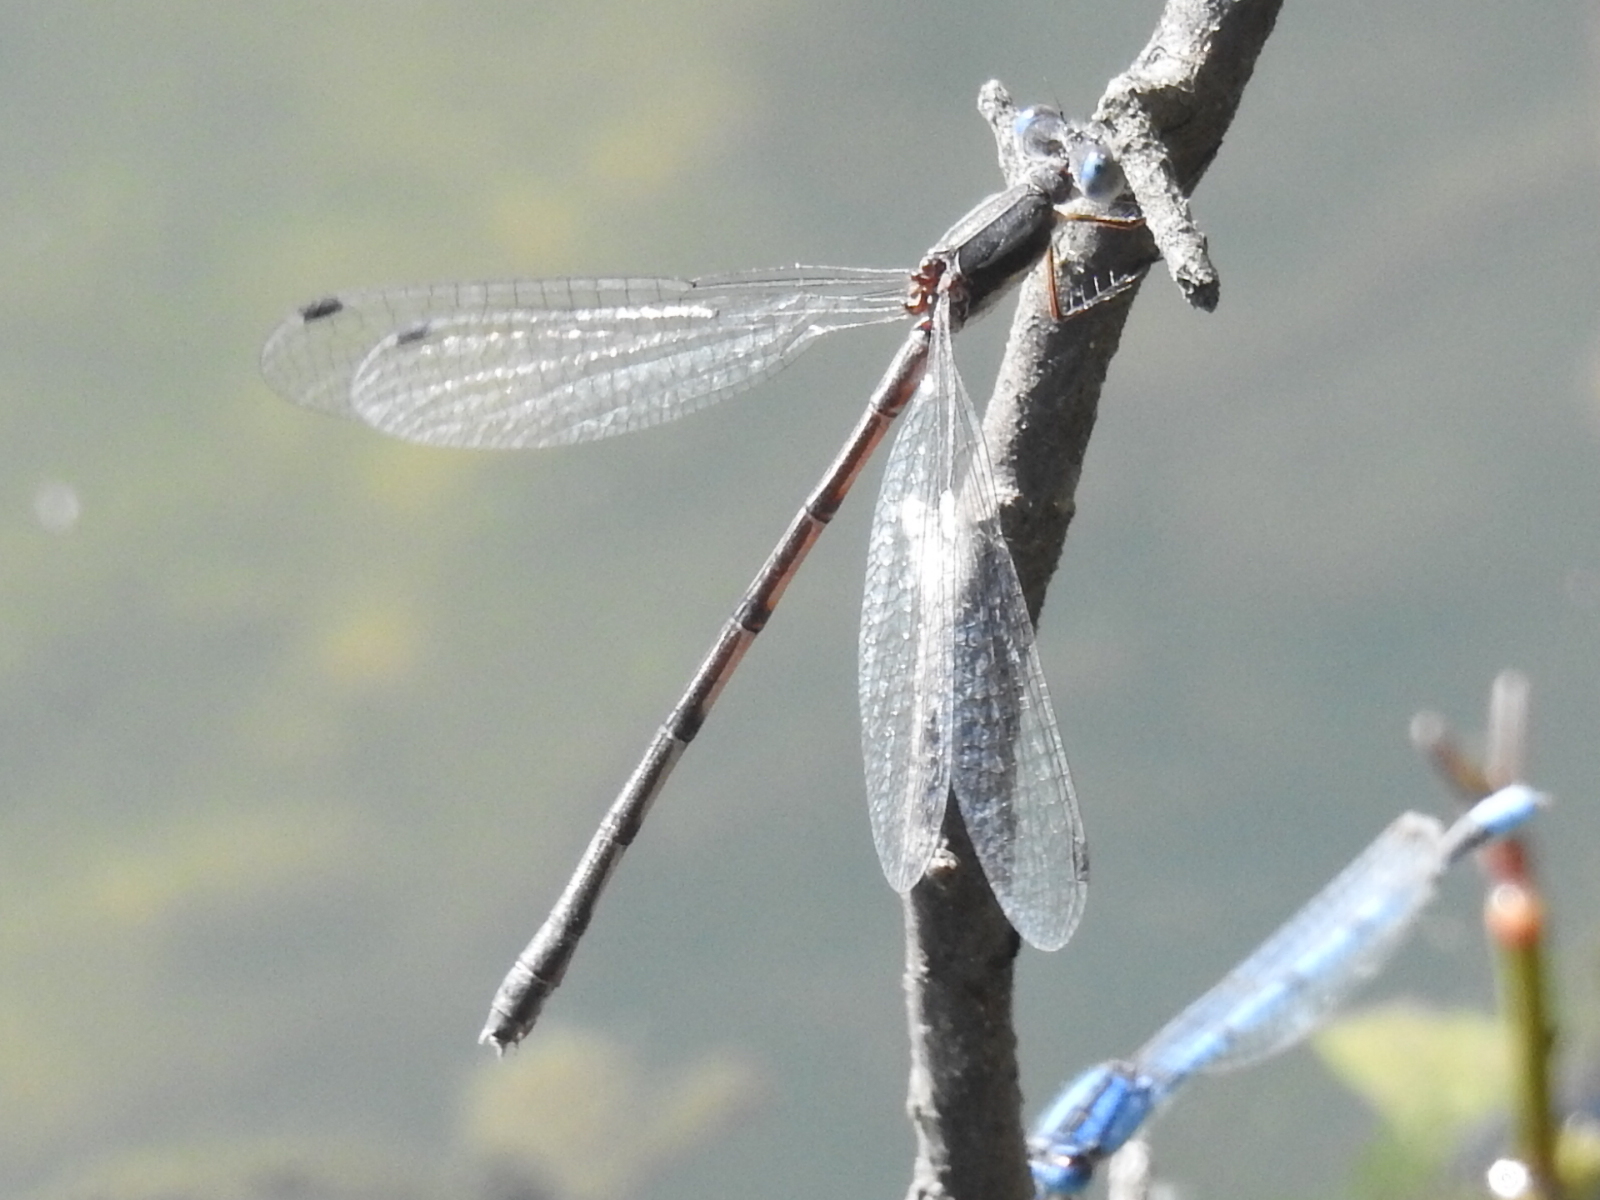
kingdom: Animalia
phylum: Arthropoda
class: Insecta
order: Odonata
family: Lestidae
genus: Lestes
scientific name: Lestes australis
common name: Southern spreadwing
